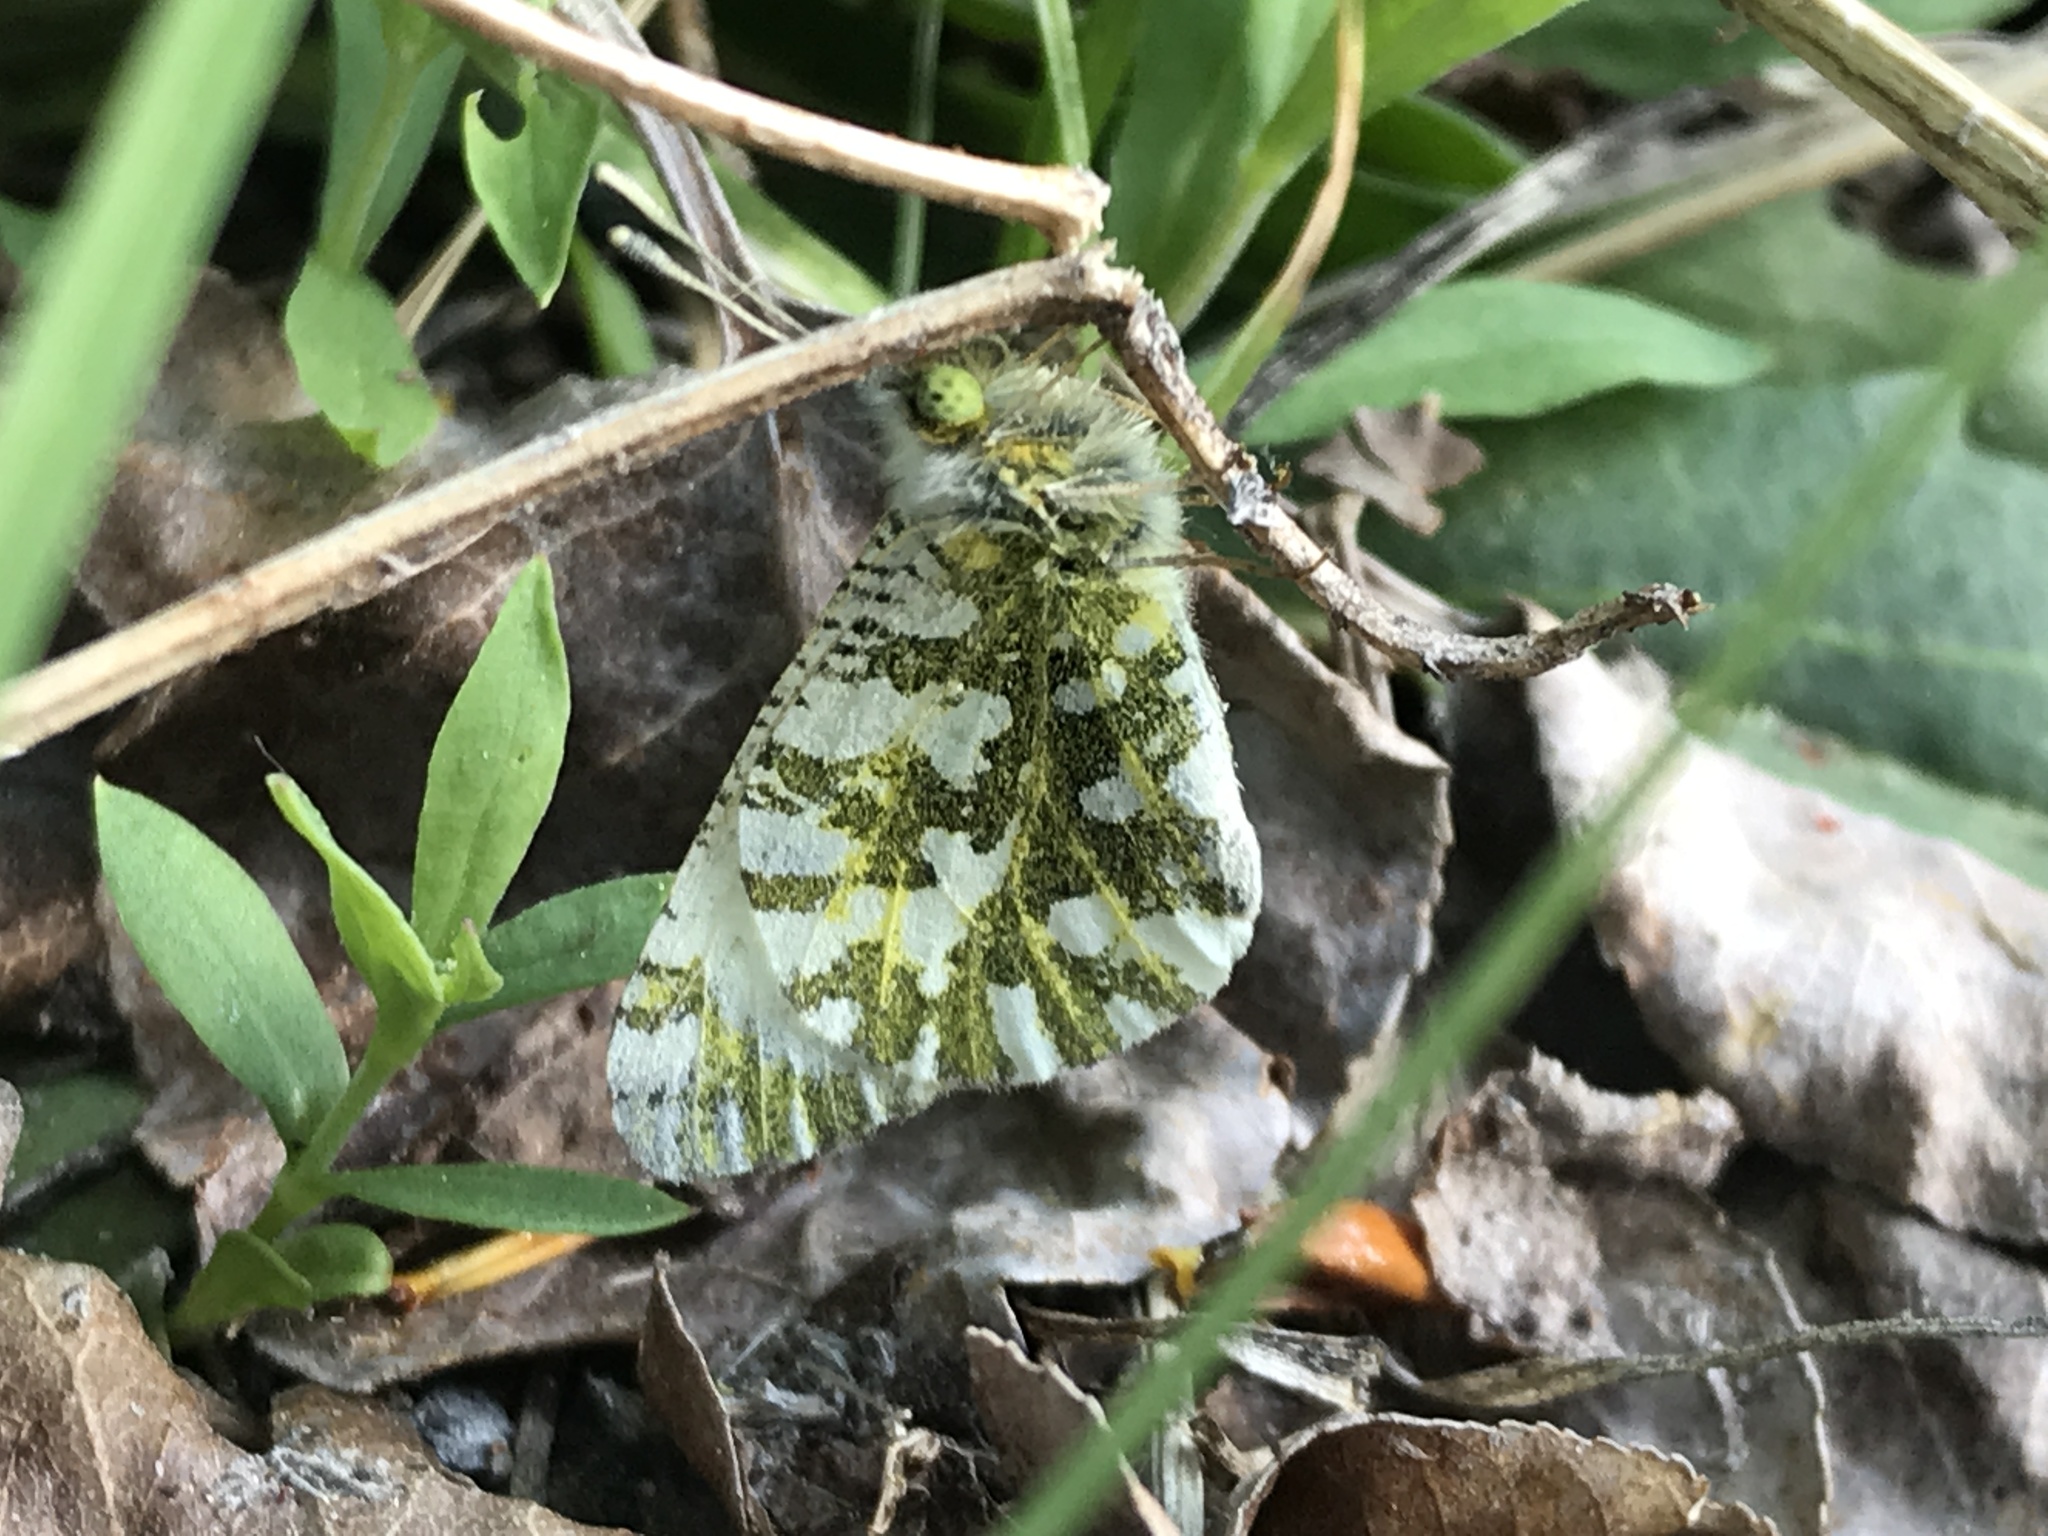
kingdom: Animalia
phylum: Arthropoda
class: Insecta
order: Lepidoptera
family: Pieridae
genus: Euchloe
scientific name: Euchloe ausonides
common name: Creamy marblewing
